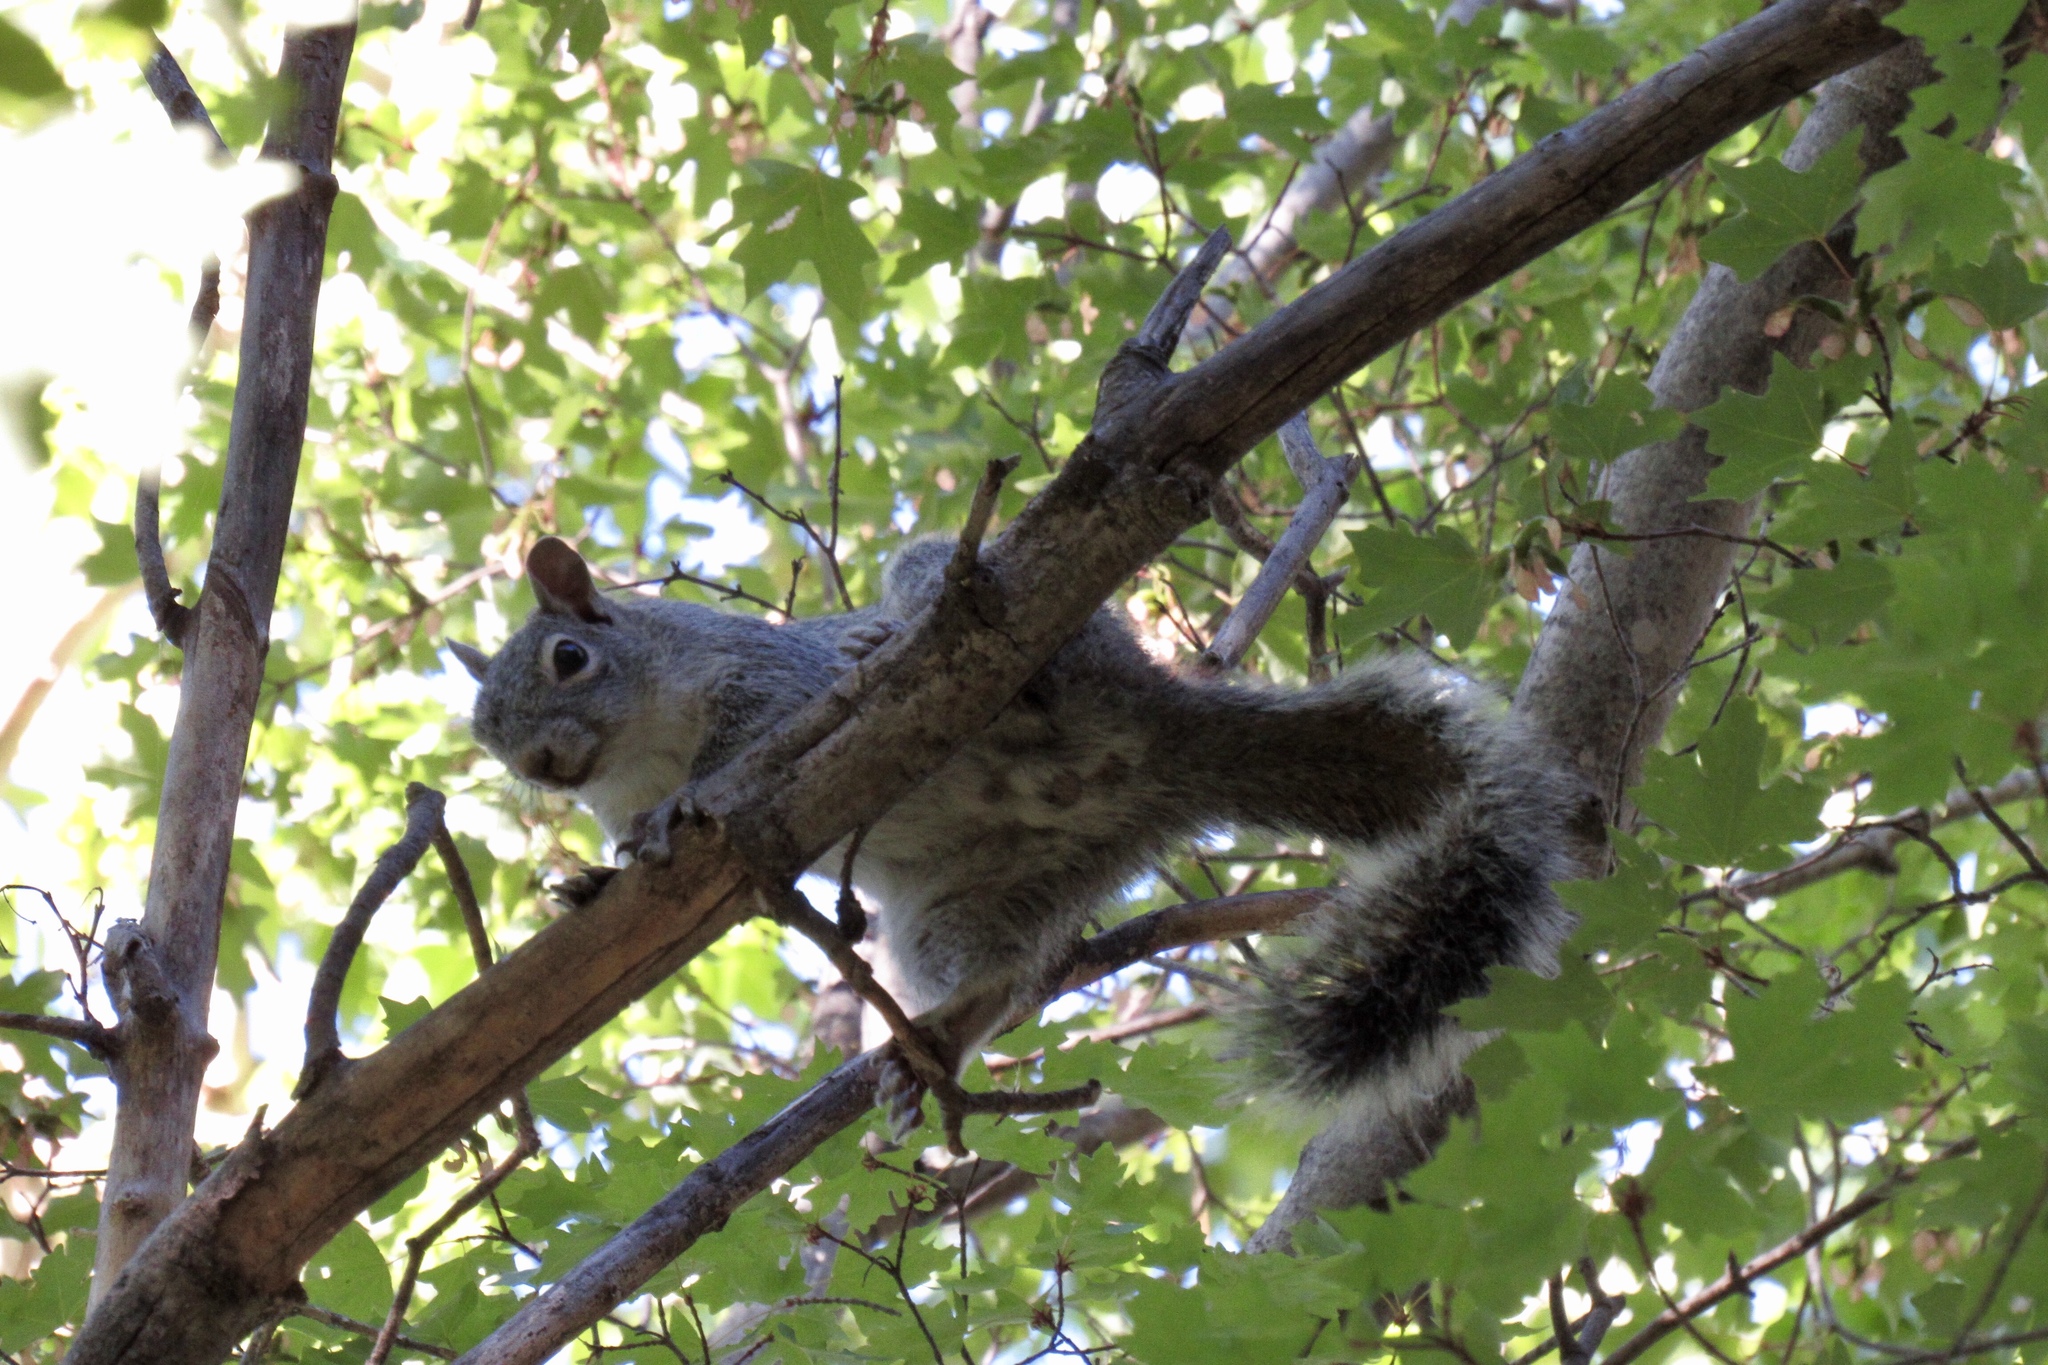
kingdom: Animalia
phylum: Chordata
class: Mammalia
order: Rodentia
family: Sciuridae
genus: Sciurus
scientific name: Sciurus arizonensis
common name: Arizona gray squirrel
